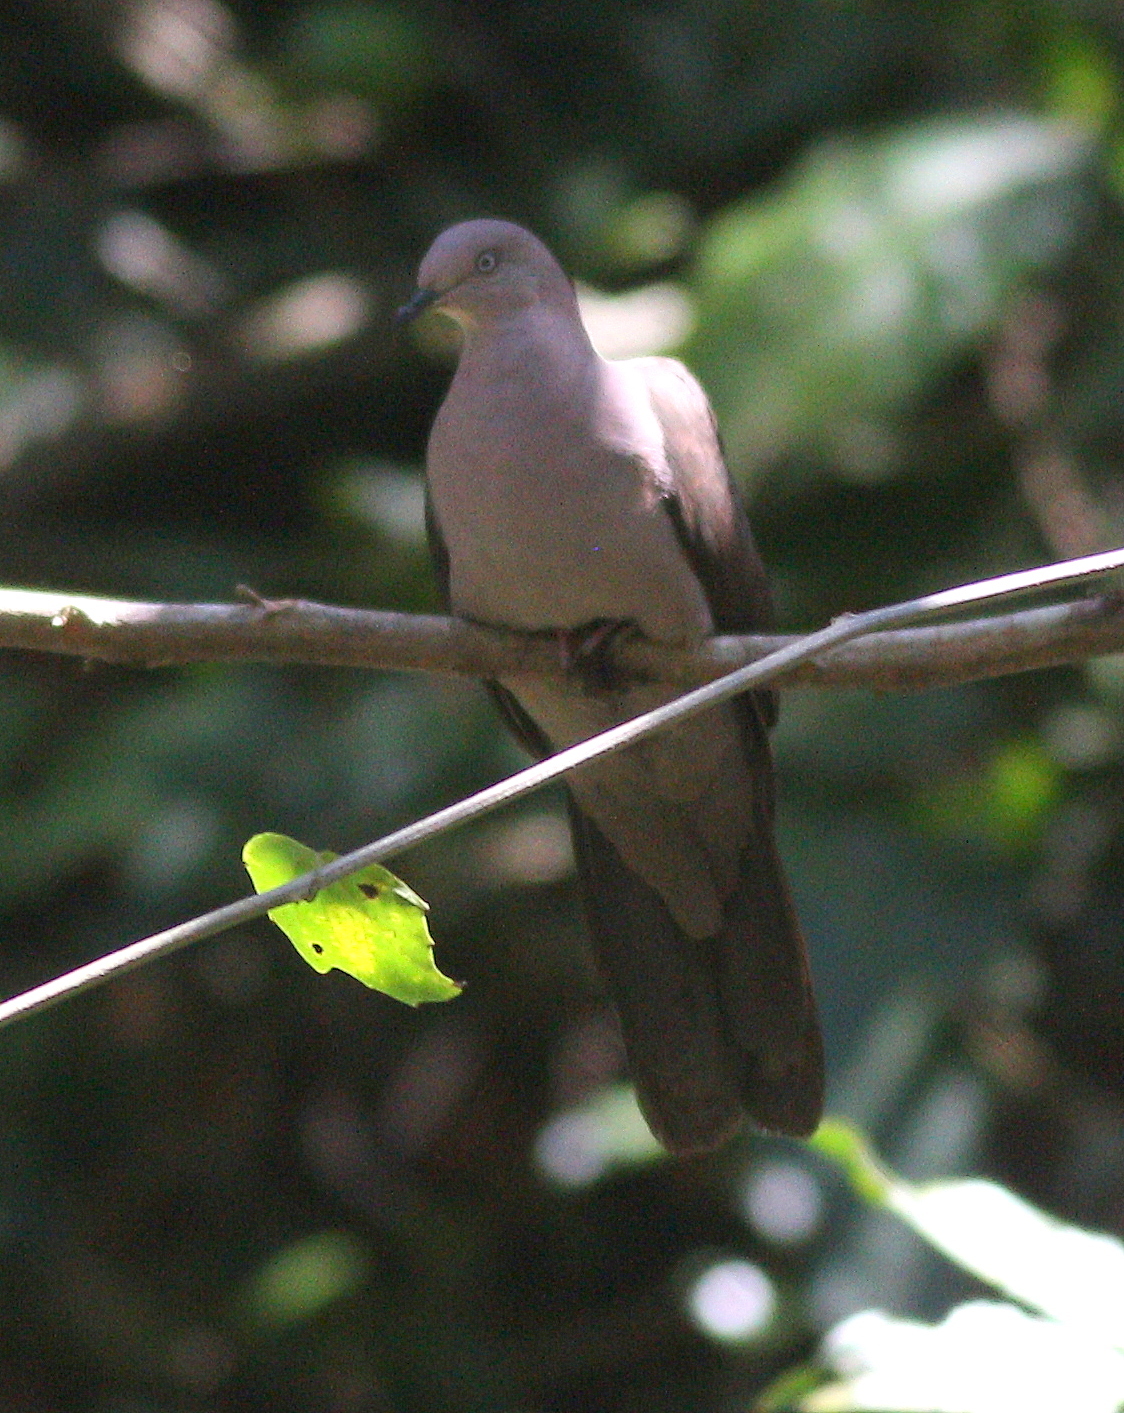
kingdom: Animalia
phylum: Chordata
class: Aves
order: Columbiformes
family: Columbidae
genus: Patagioenas
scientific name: Patagioenas plumbea
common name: Plumbeous pigeon
